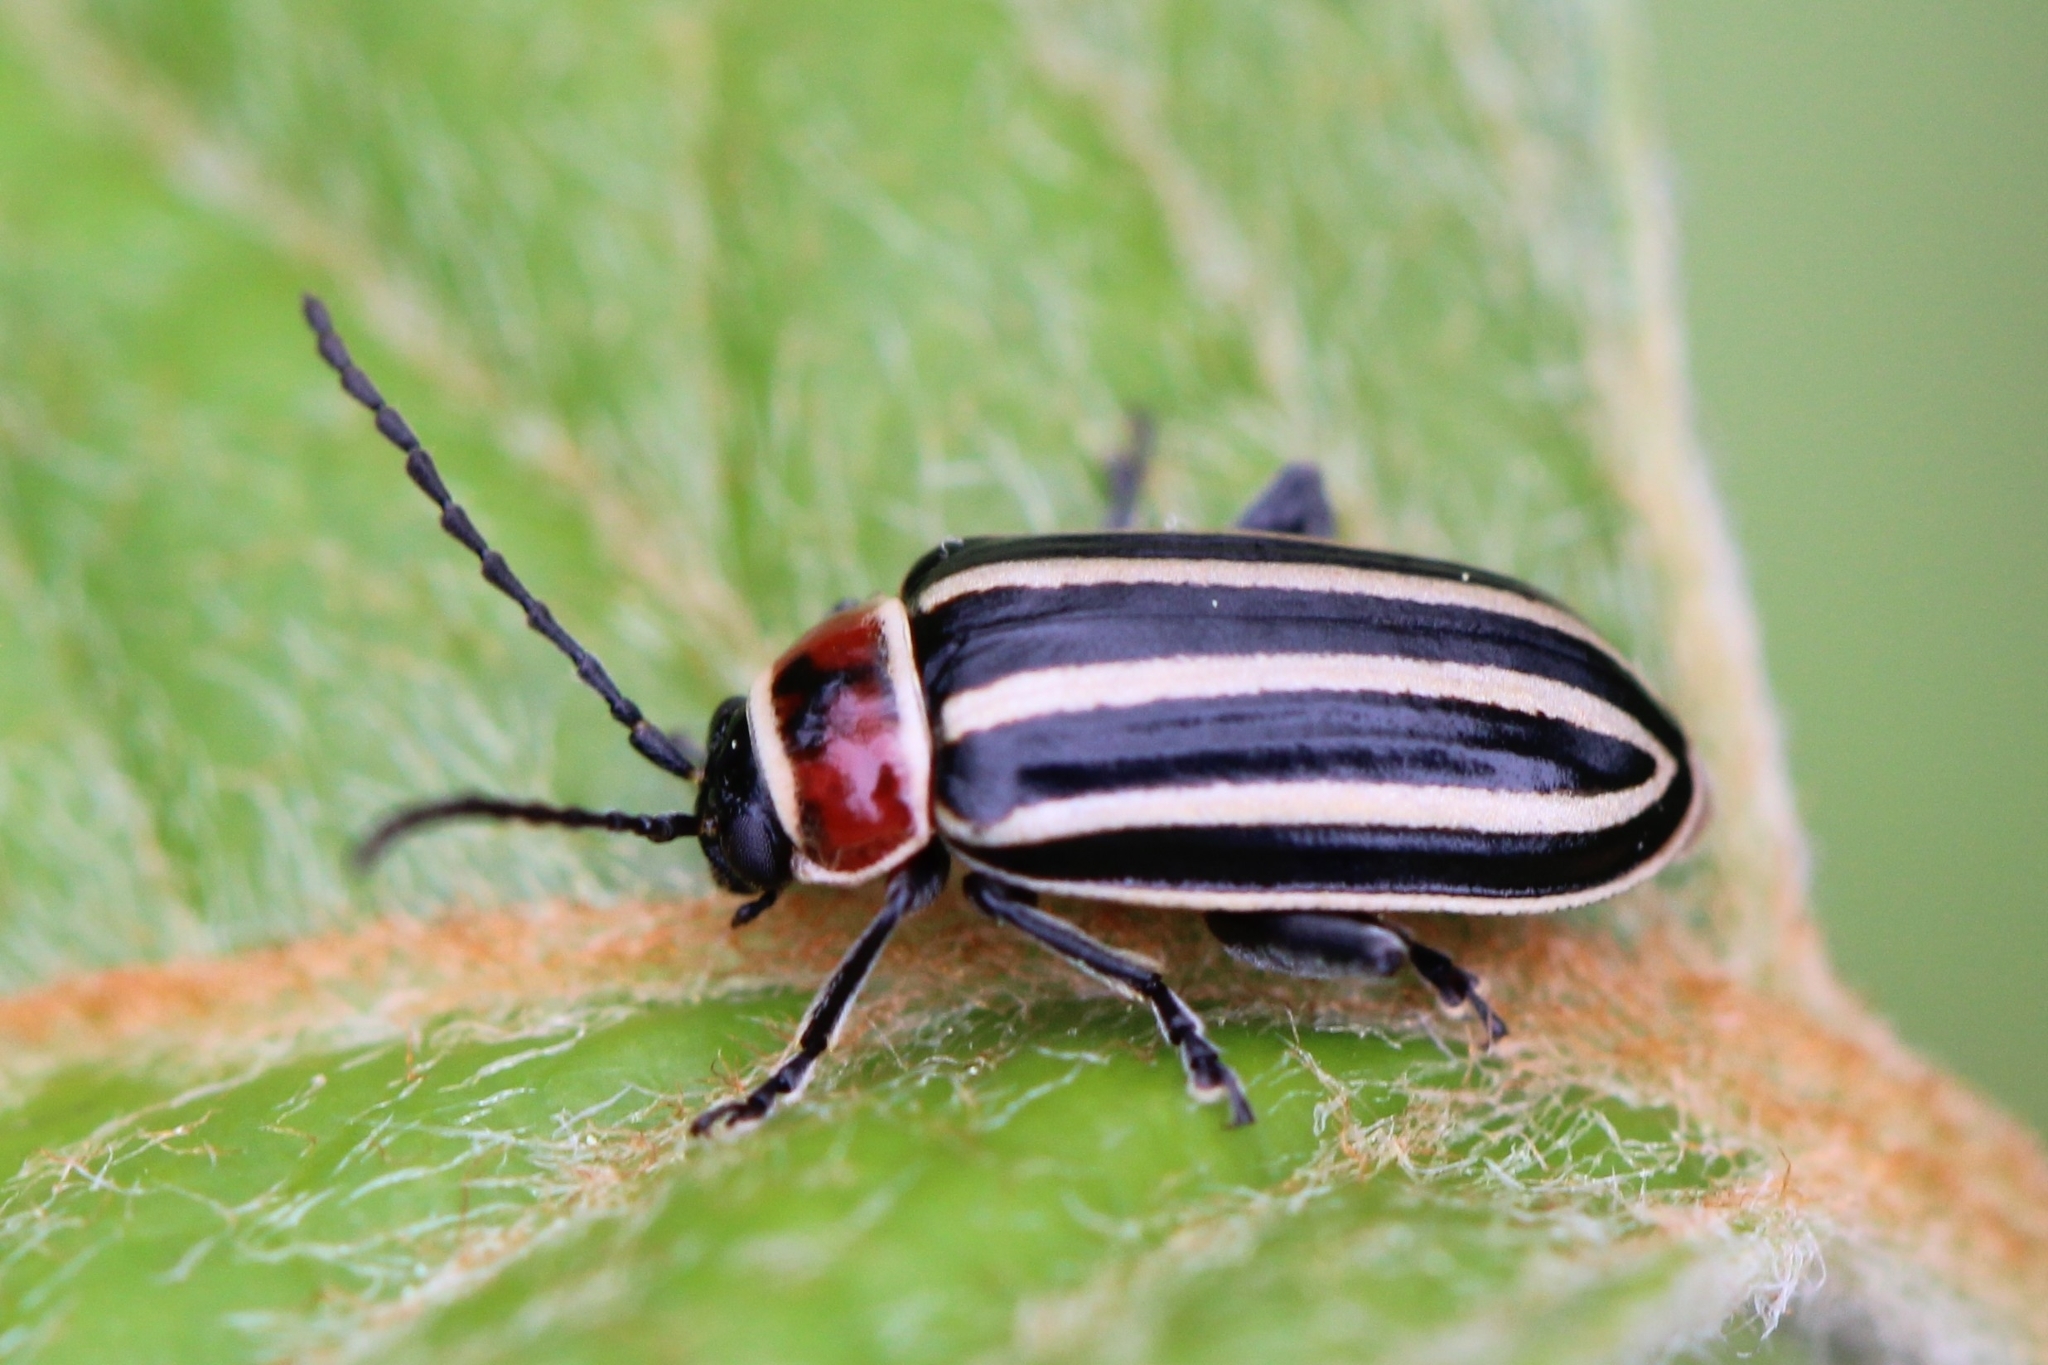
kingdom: Animalia
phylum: Arthropoda
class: Insecta
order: Coleoptera
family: Chrysomelidae
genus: Disonycha
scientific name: Disonycha pensylvanica
